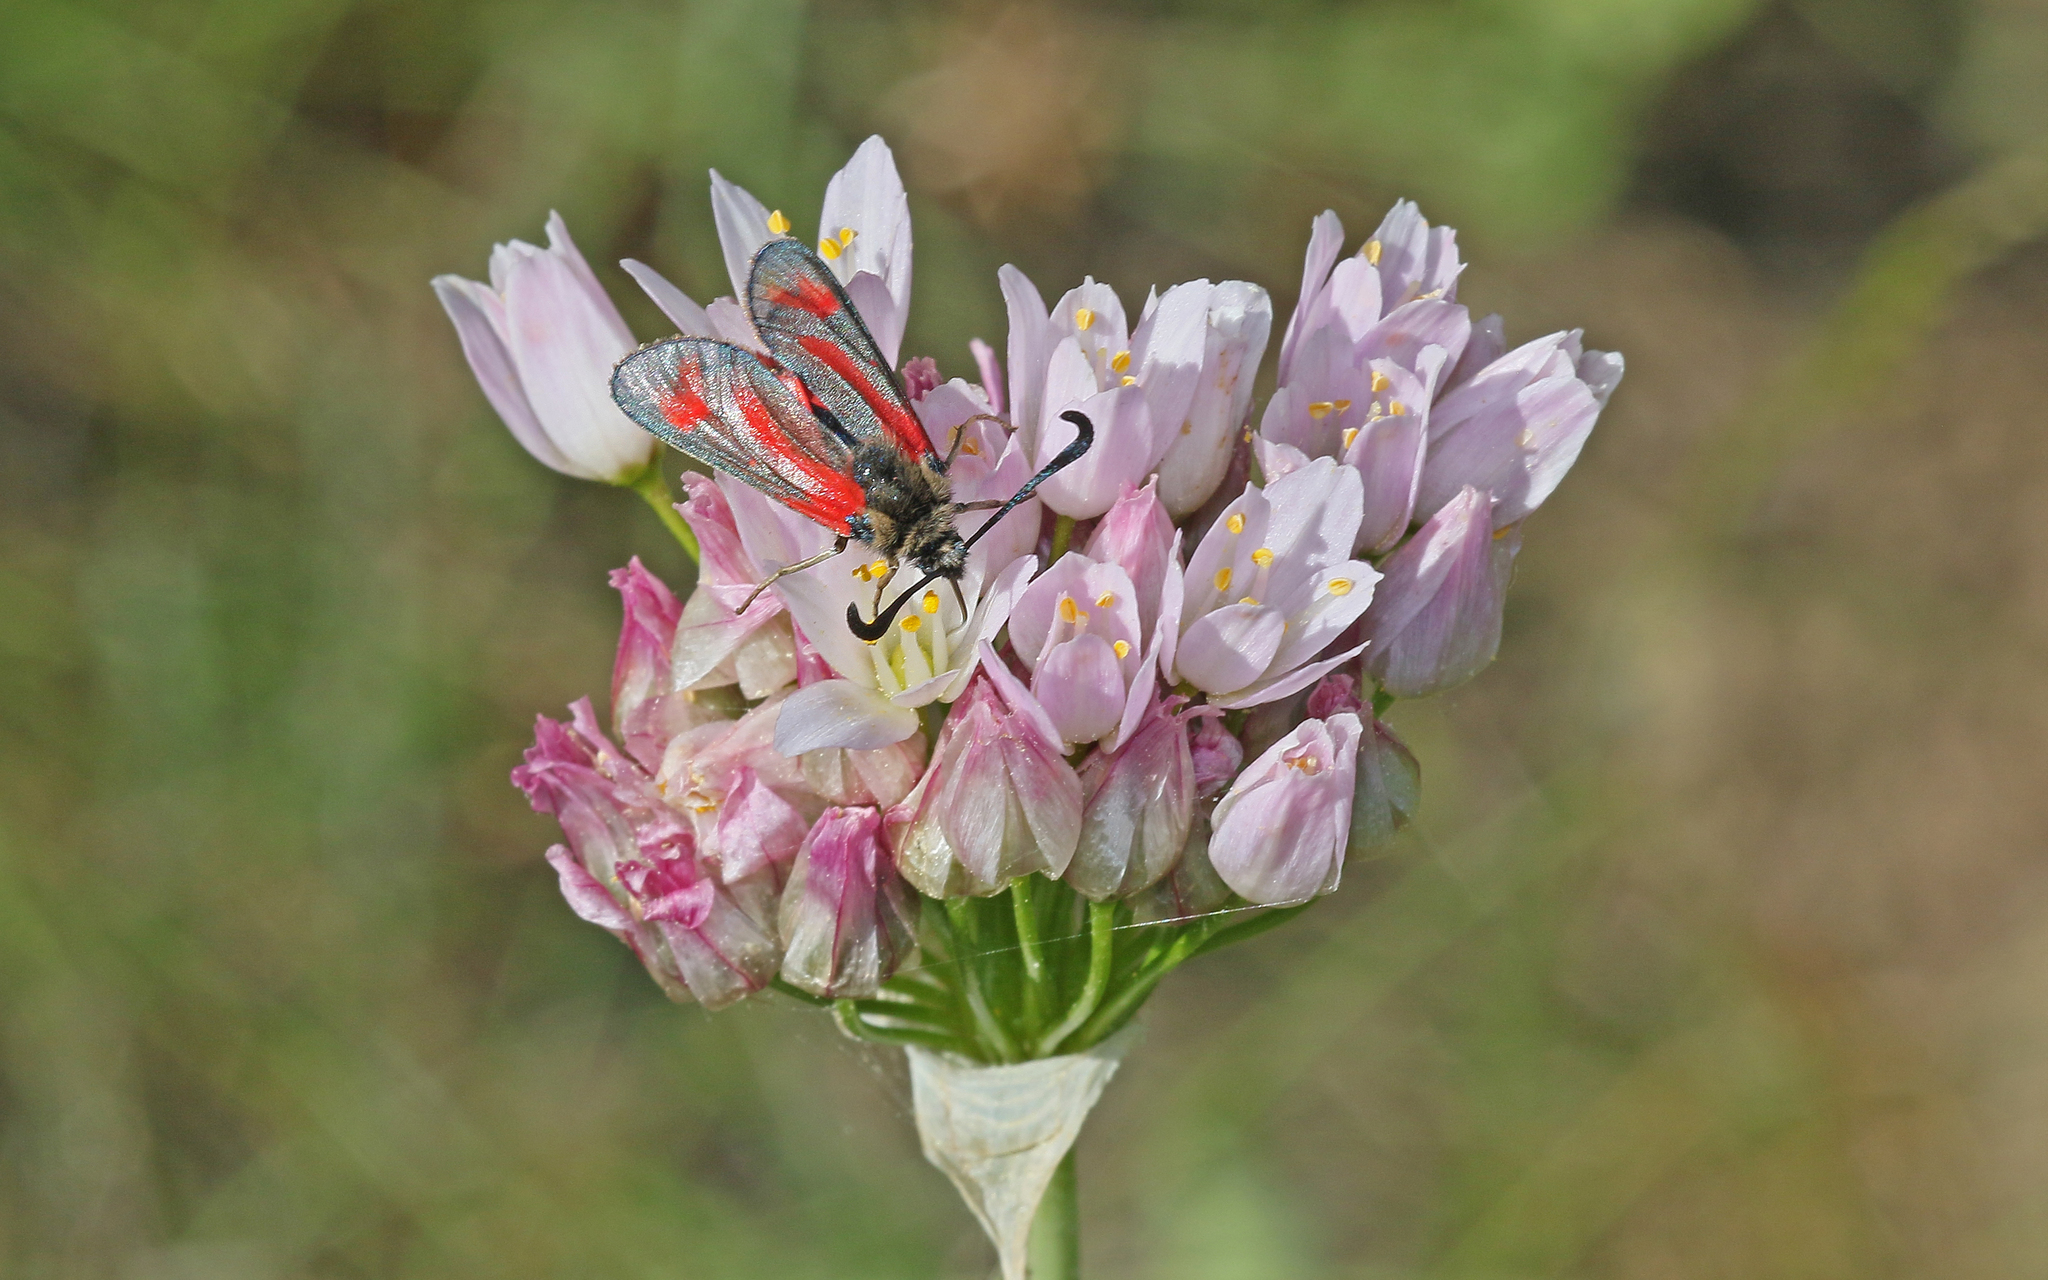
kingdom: Animalia
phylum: Arthropoda
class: Insecta
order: Lepidoptera
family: Zygaenidae
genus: Zygaena
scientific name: Zygaena sarpedon
